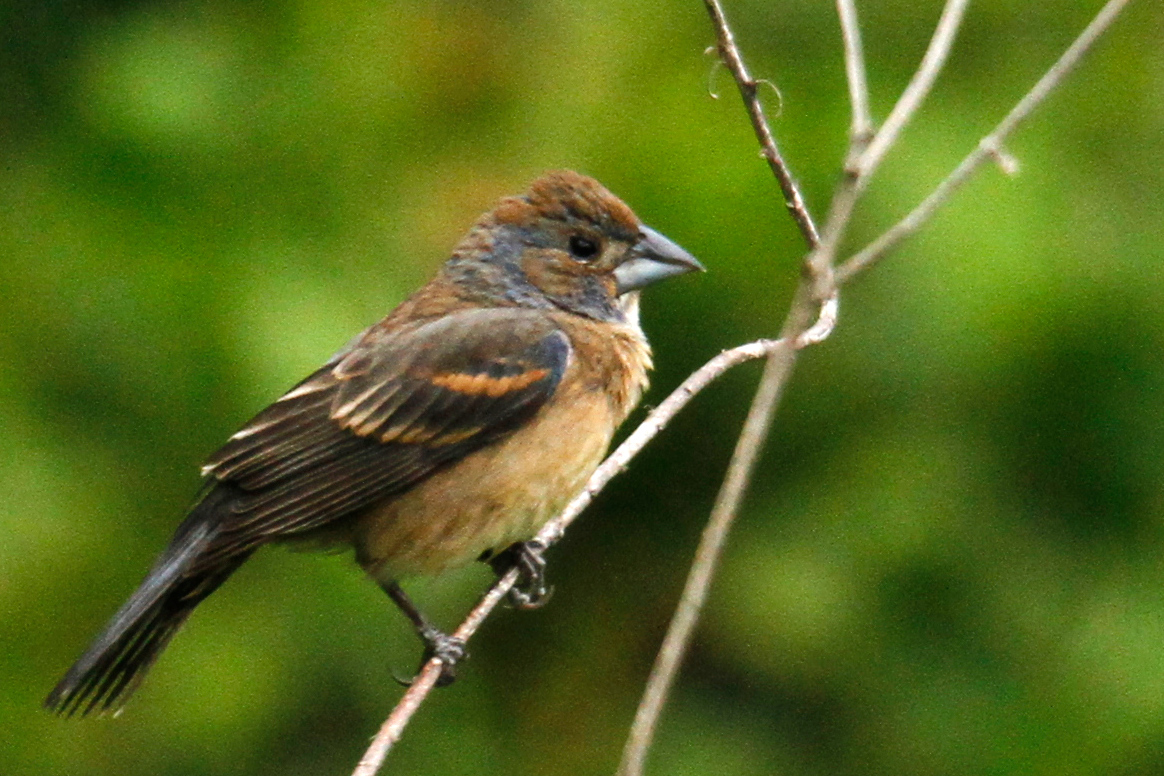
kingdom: Animalia
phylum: Chordata
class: Aves
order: Passeriformes
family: Cardinalidae
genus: Passerina
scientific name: Passerina caerulea
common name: Blue grosbeak
